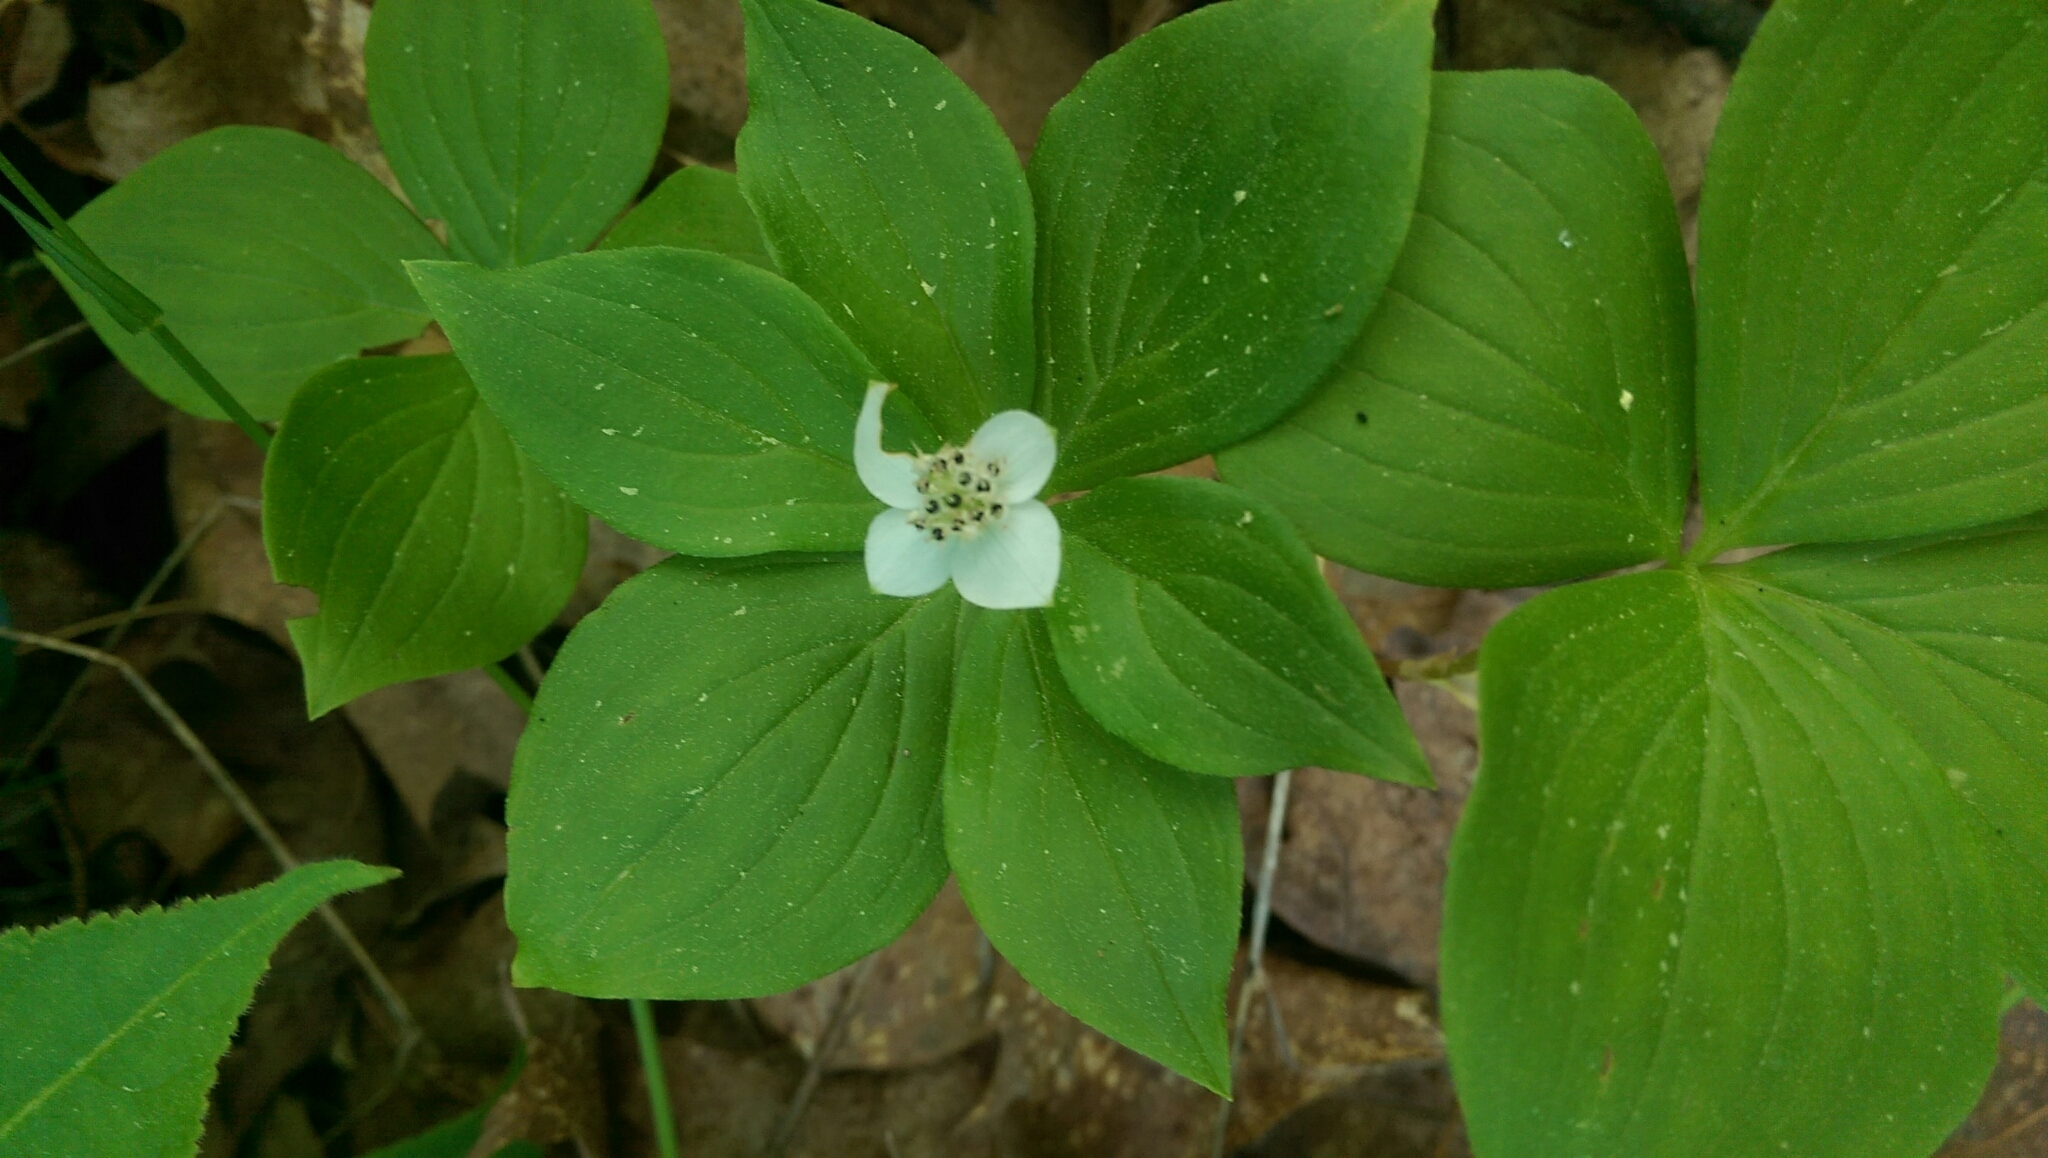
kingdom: Plantae
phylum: Tracheophyta
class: Magnoliopsida
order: Cornales
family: Cornaceae
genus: Cornus
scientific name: Cornus canadensis
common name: Creeping dogwood
